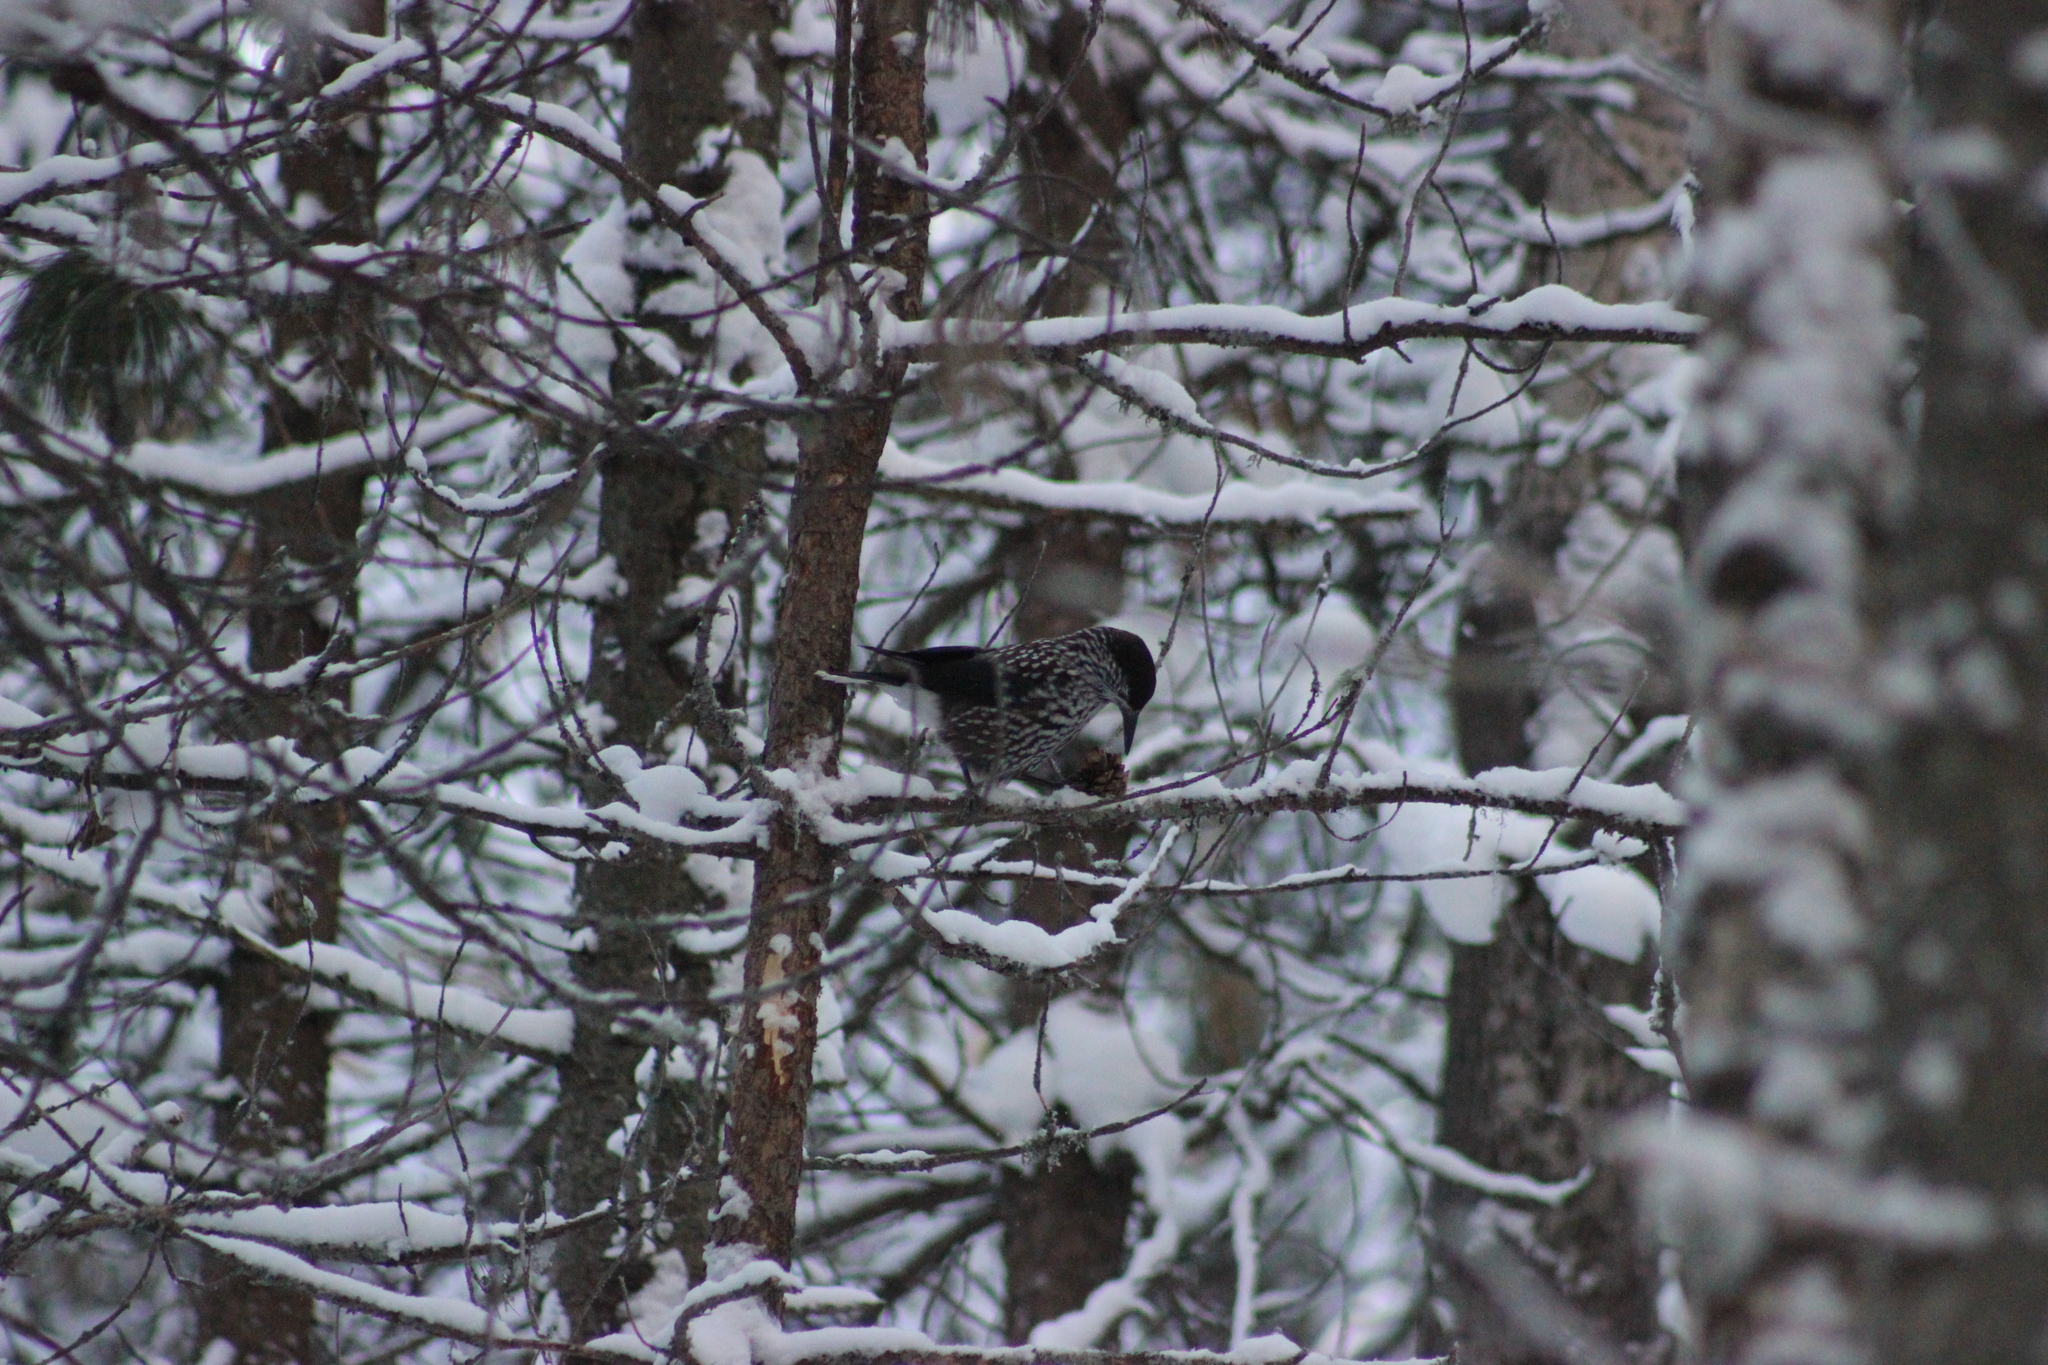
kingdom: Animalia
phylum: Chordata
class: Aves
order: Passeriformes
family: Corvidae
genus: Nucifraga
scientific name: Nucifraga caryocatactes
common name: Spotted nutcracker
